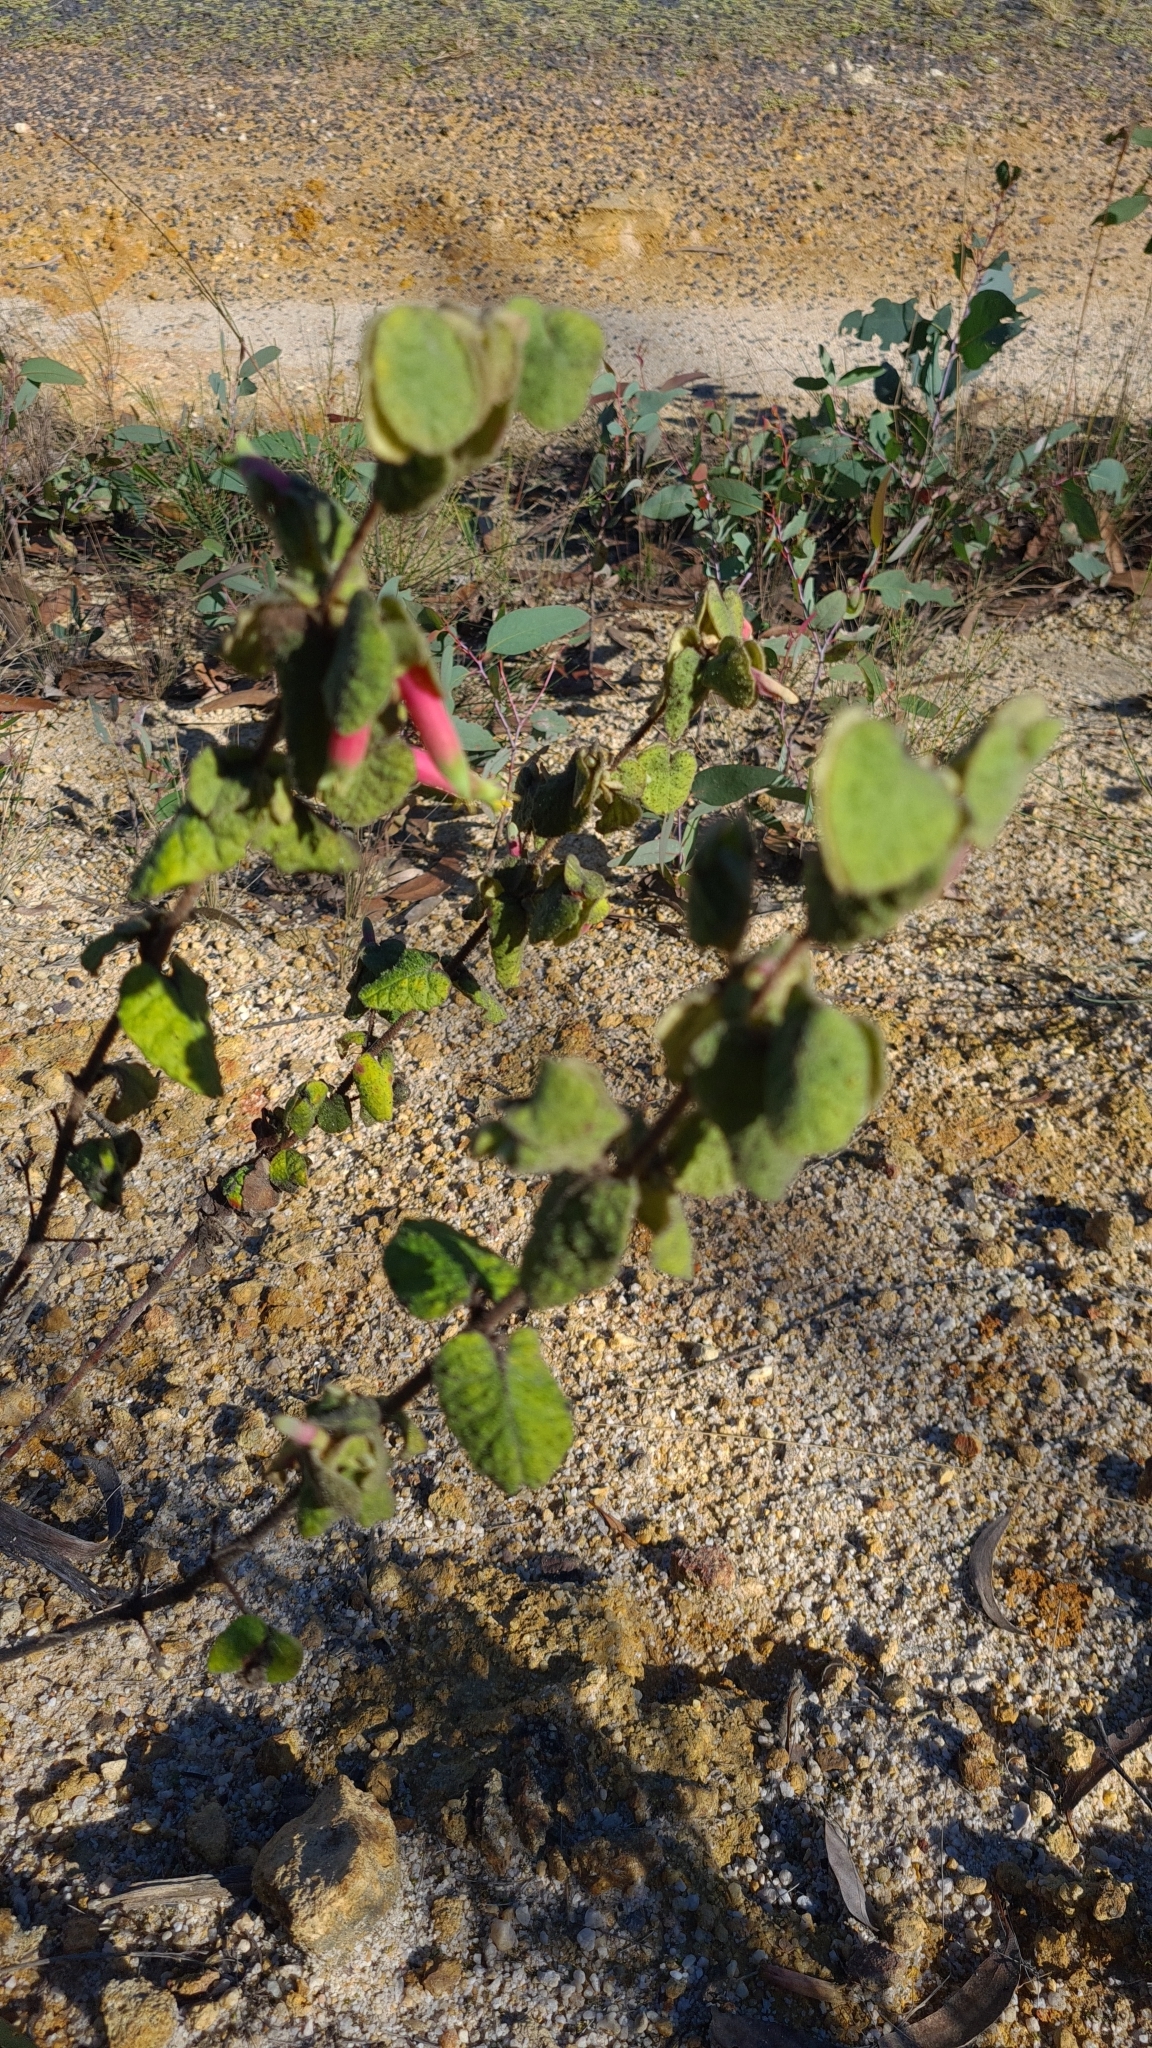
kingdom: Plantae
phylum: Tracheophyta
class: Magnoliopsida
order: Sapindales
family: Rutaceae
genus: Correa
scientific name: Correa reflexa
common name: Common correa
